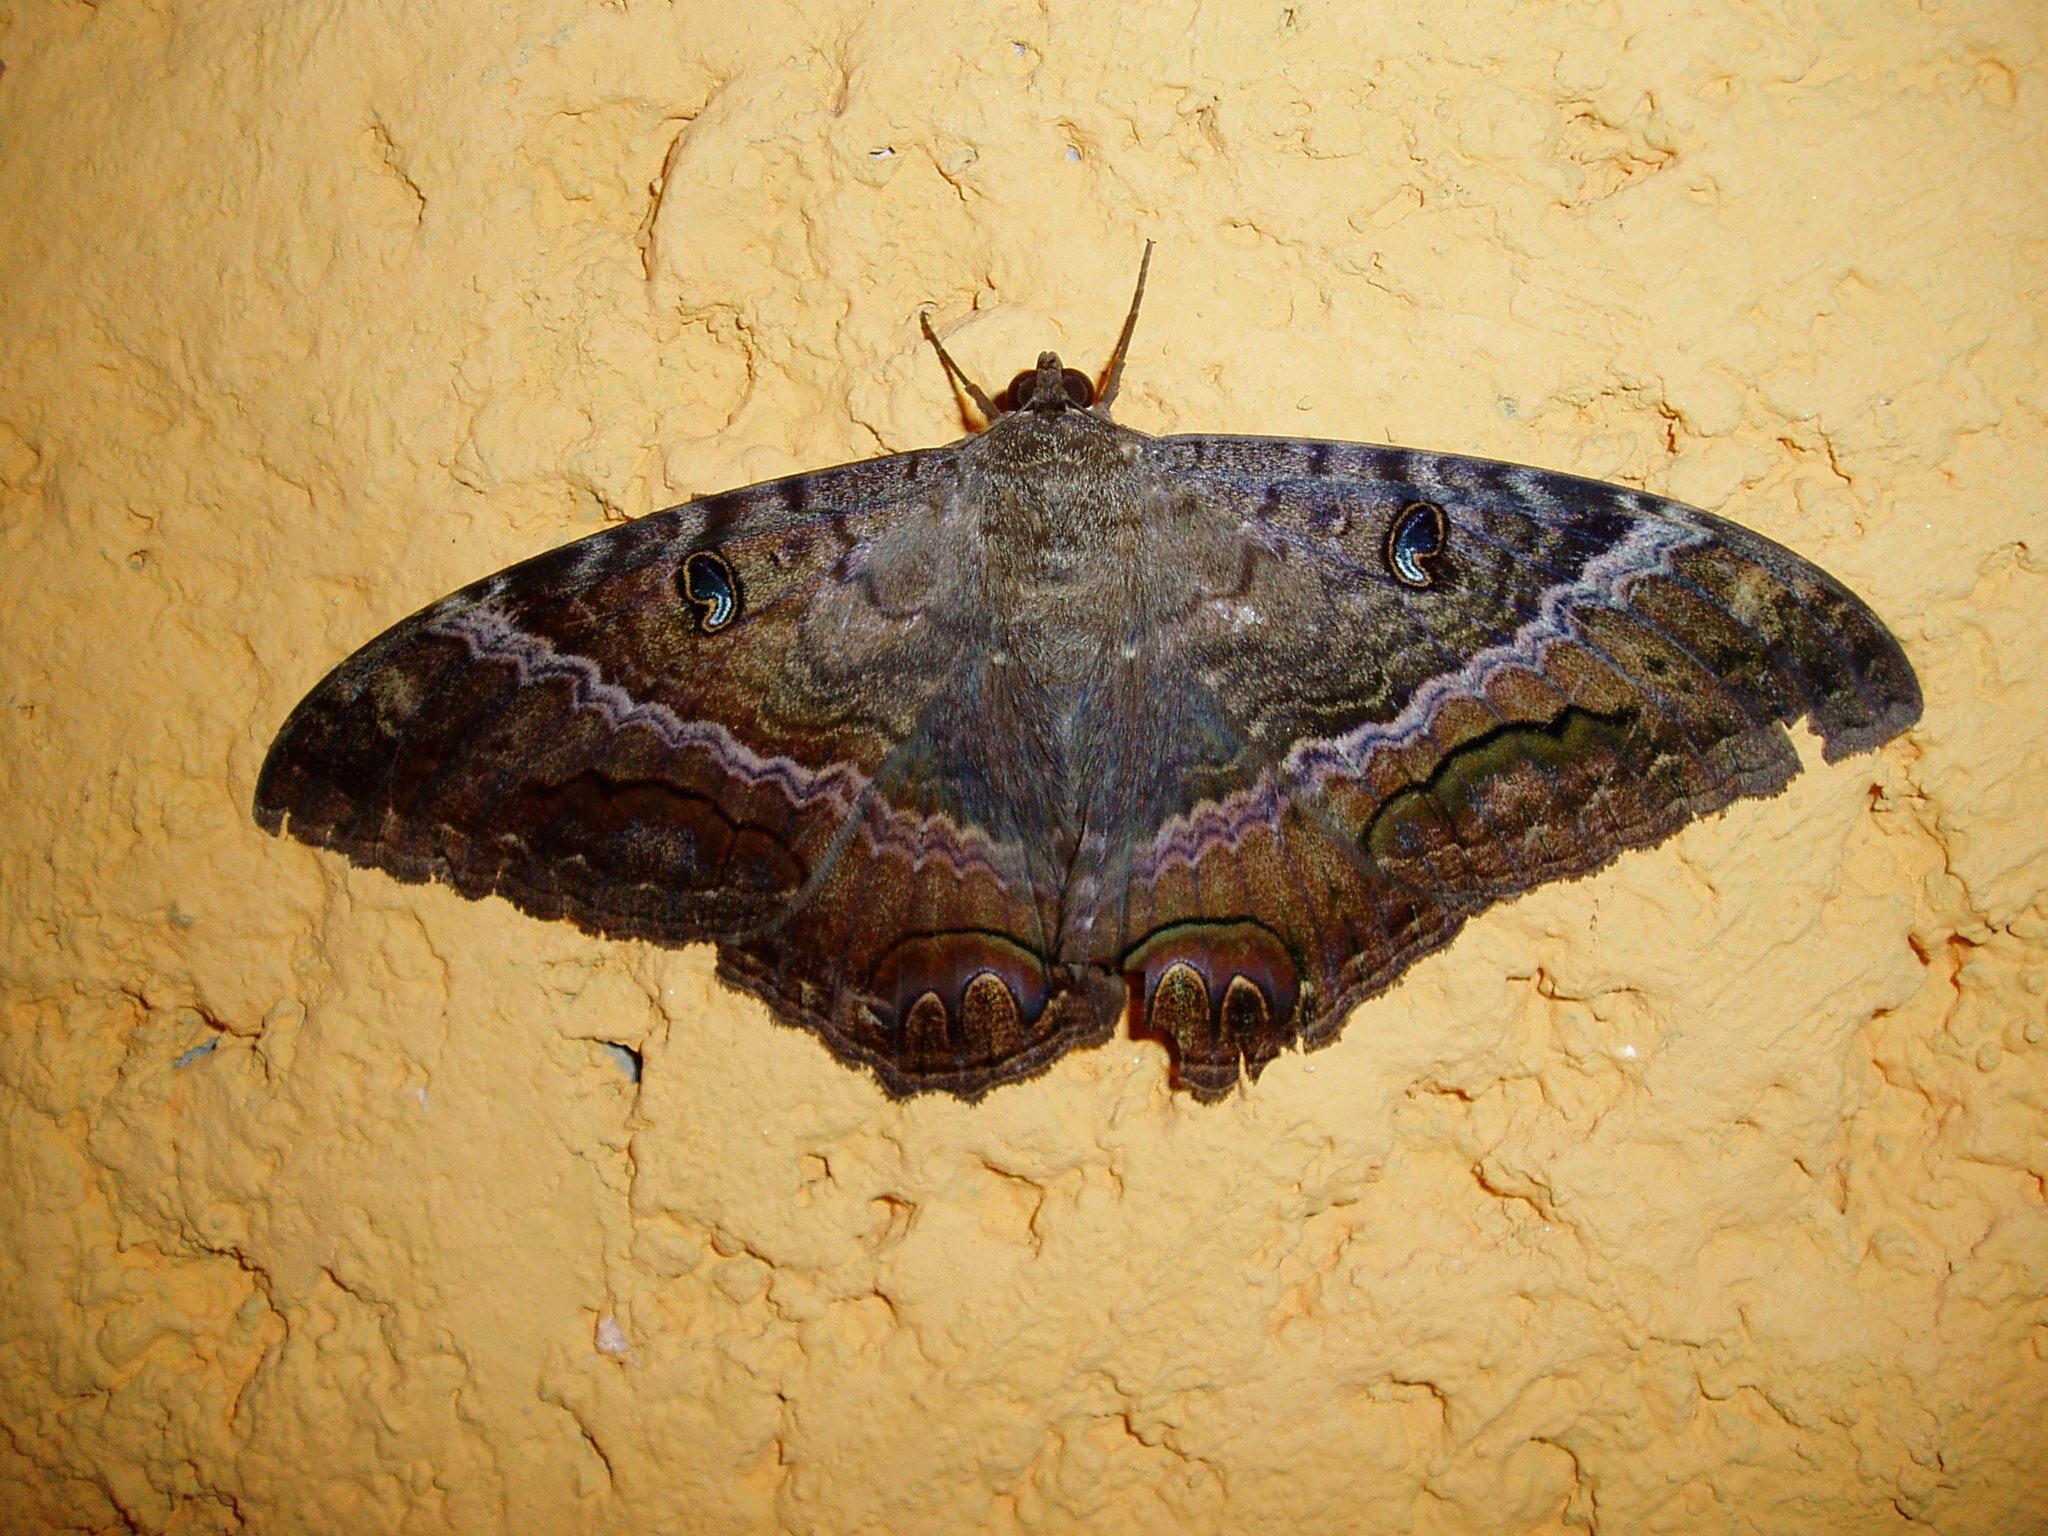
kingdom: Animalia
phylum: Arthropoda
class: Insecta
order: Lepidoptera
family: Erebidae
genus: Ascalapha
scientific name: Ascalapha odorata
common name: Black witch
